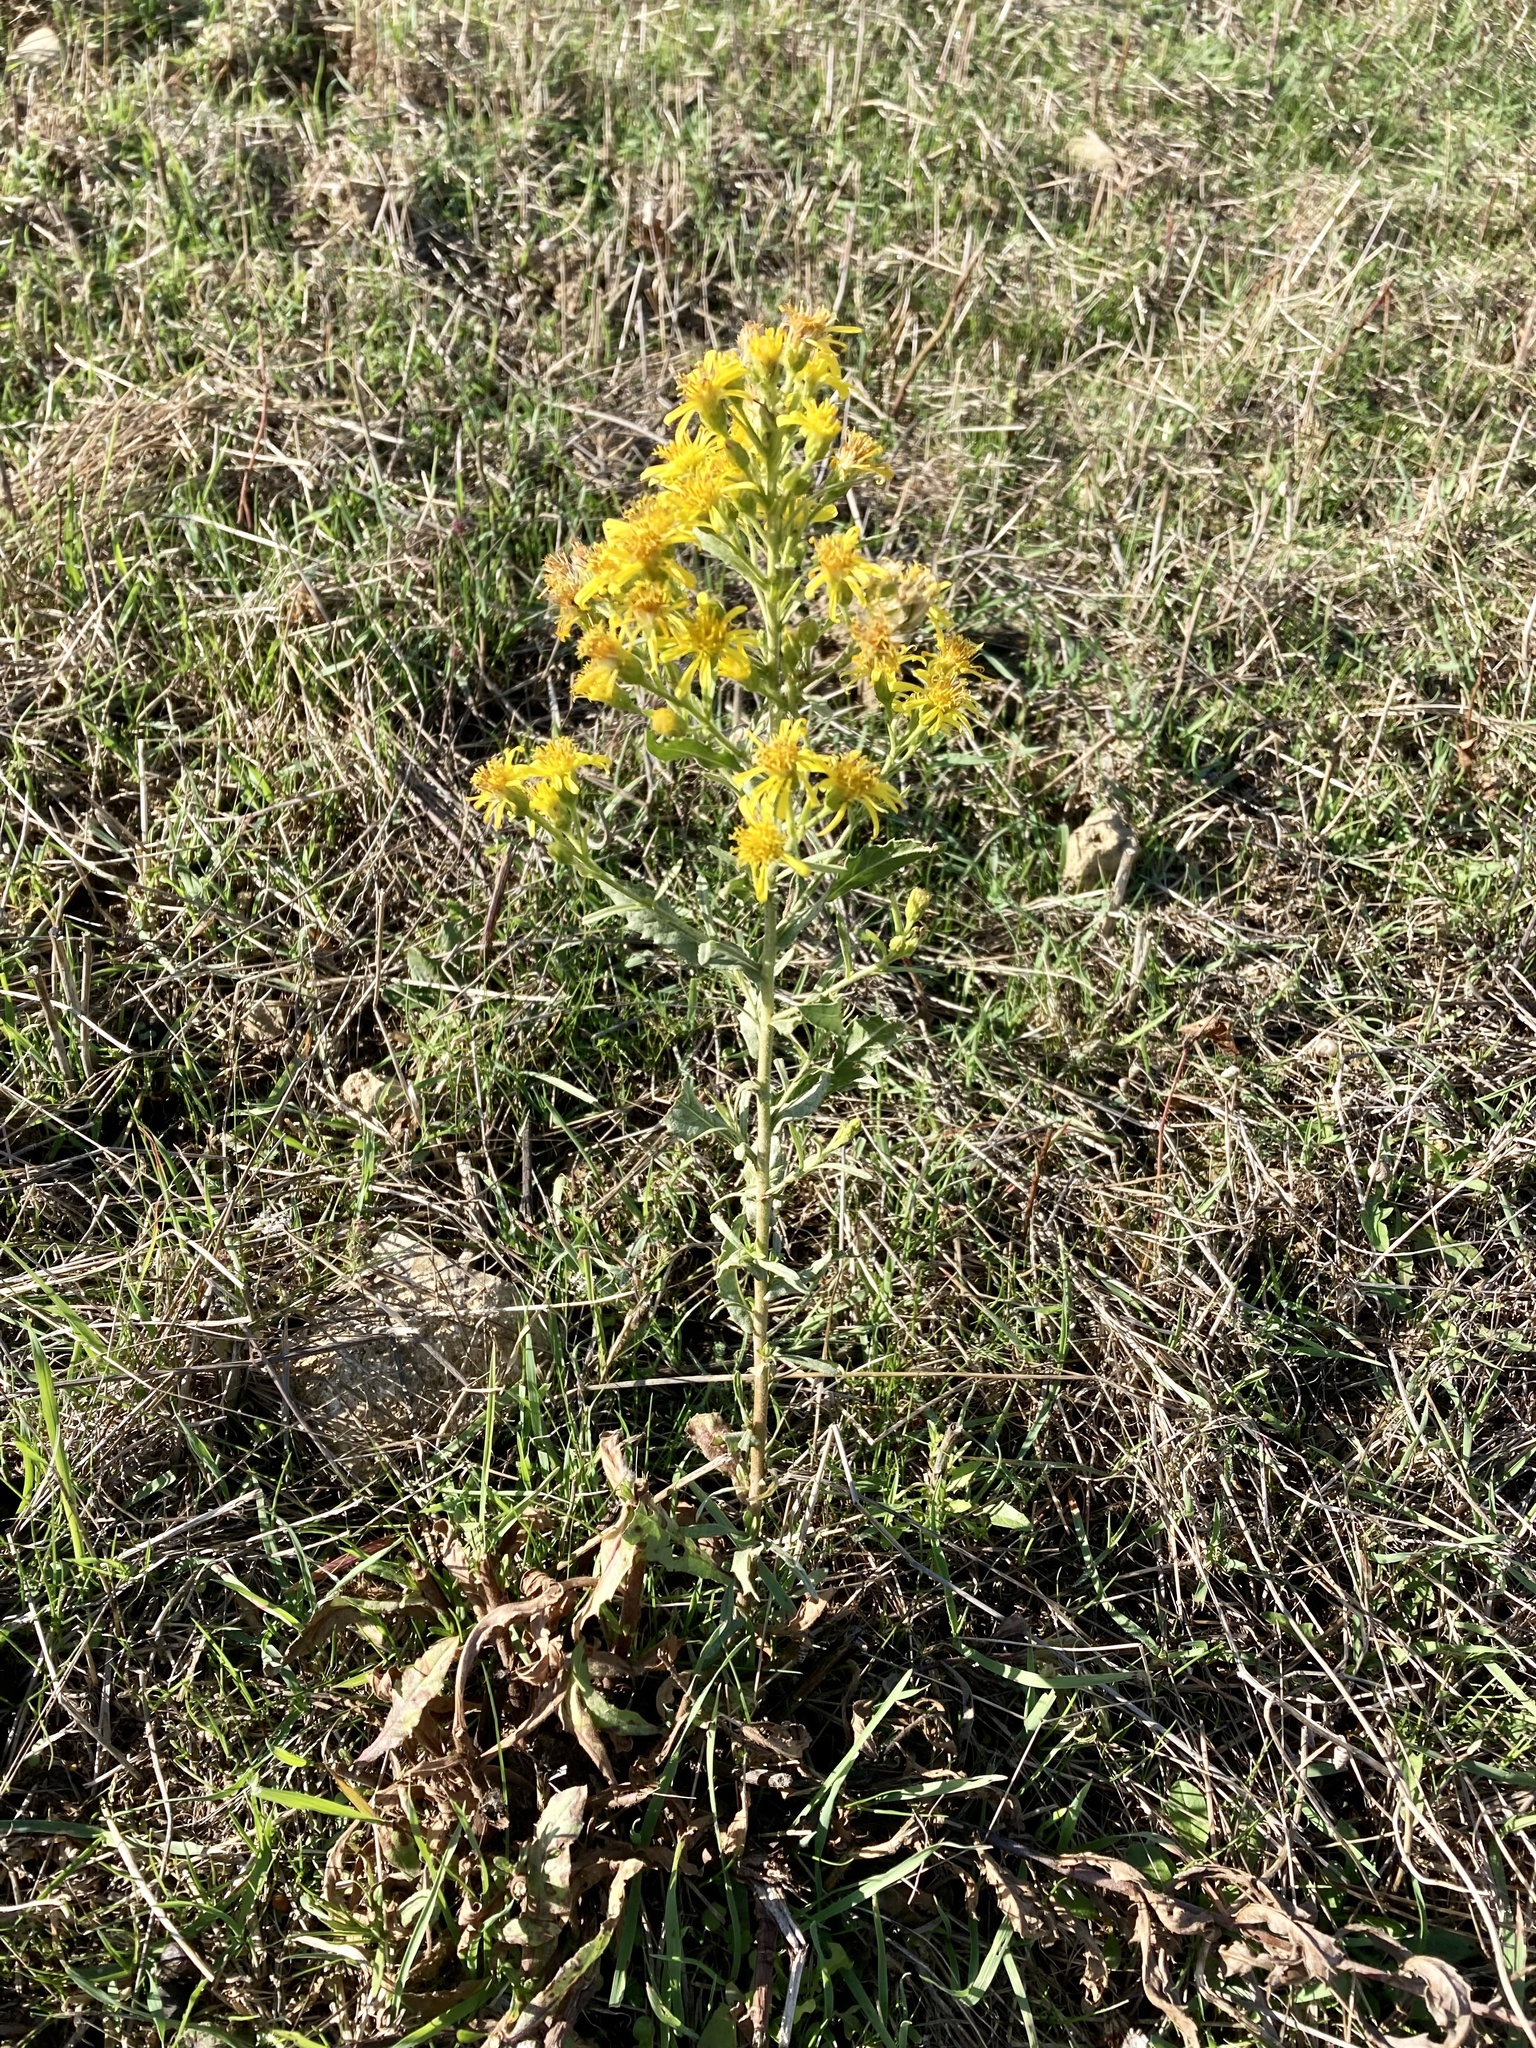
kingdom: Plantae
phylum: Tracheophyta
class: Magnoliopsida
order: Asterales
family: Asteraceae
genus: Dittrichia
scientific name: Dittrichia viscosa
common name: Woody fleabane
